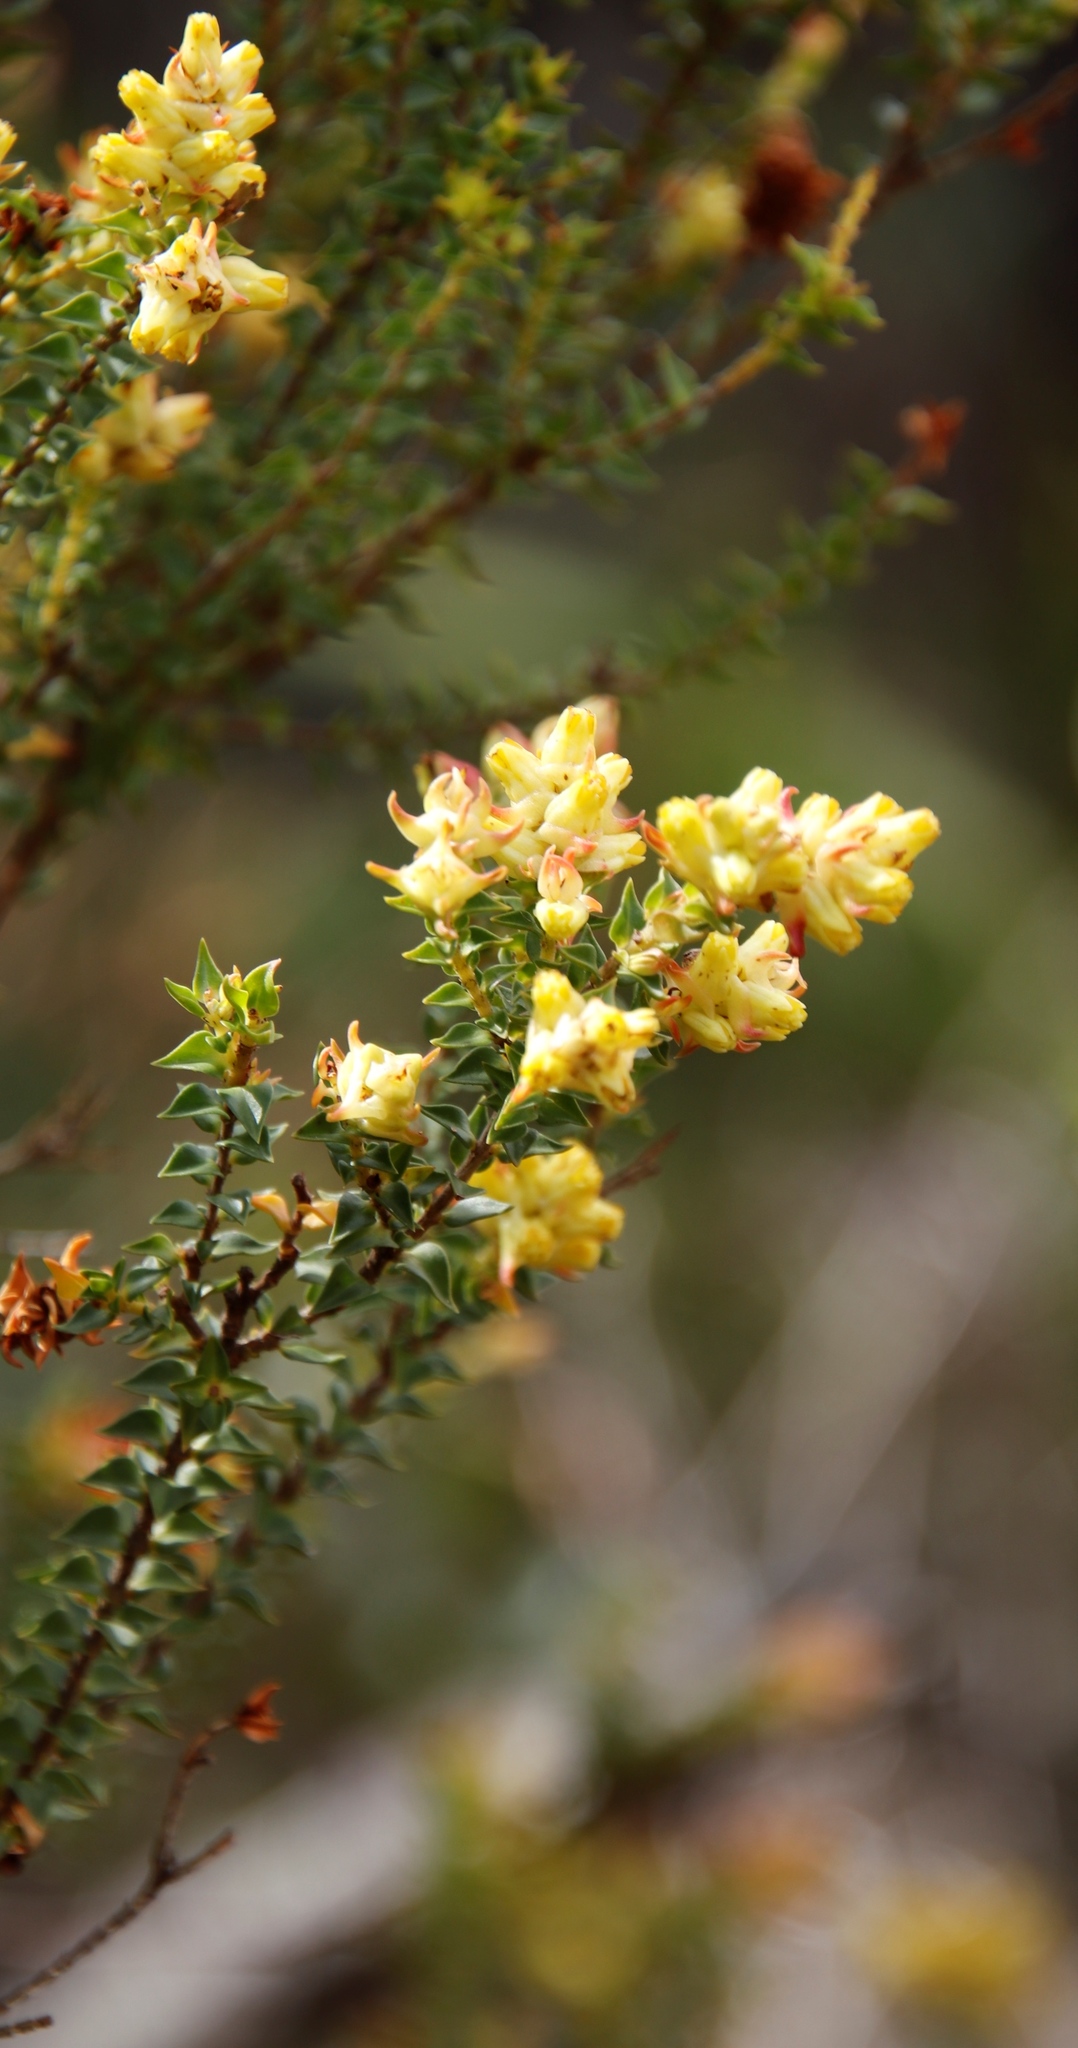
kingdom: Plantae
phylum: Tracheophyta
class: Magnoliopsida
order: Myrtales
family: Penaeaceae
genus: Penaea
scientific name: Penaea mucronata
